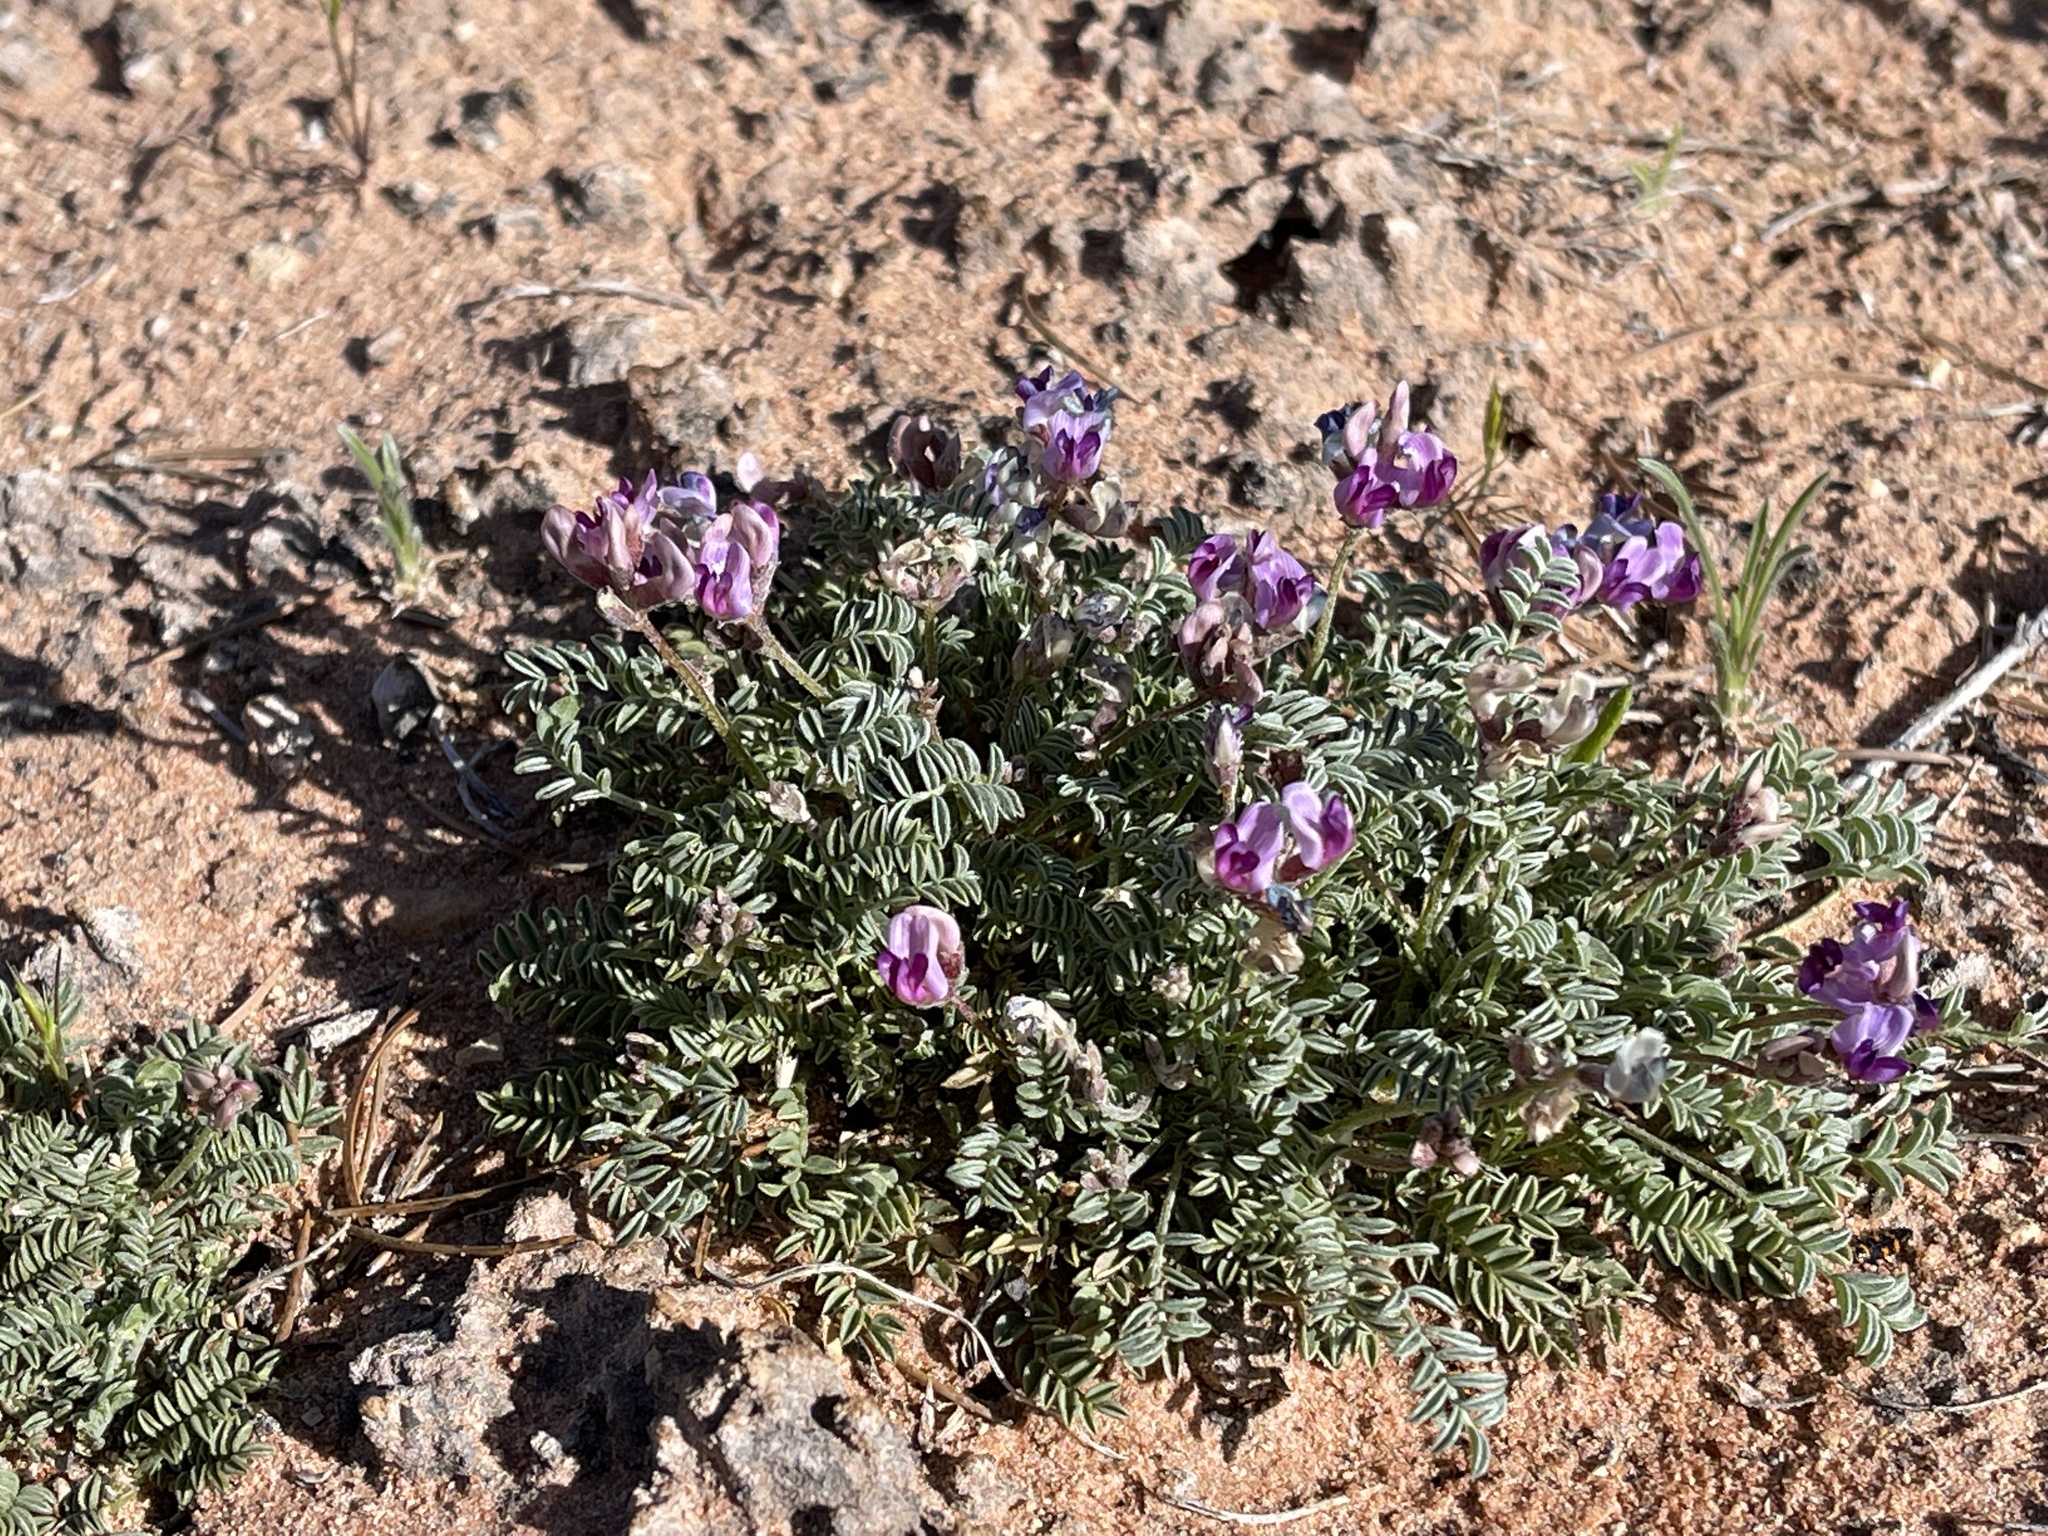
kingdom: Plantae
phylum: Tracheophyta
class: Magnoliopsida
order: Fabales
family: Fabaceae
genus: Astragalus
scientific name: Astragalus desperatus
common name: Rimrock milk-vetch
